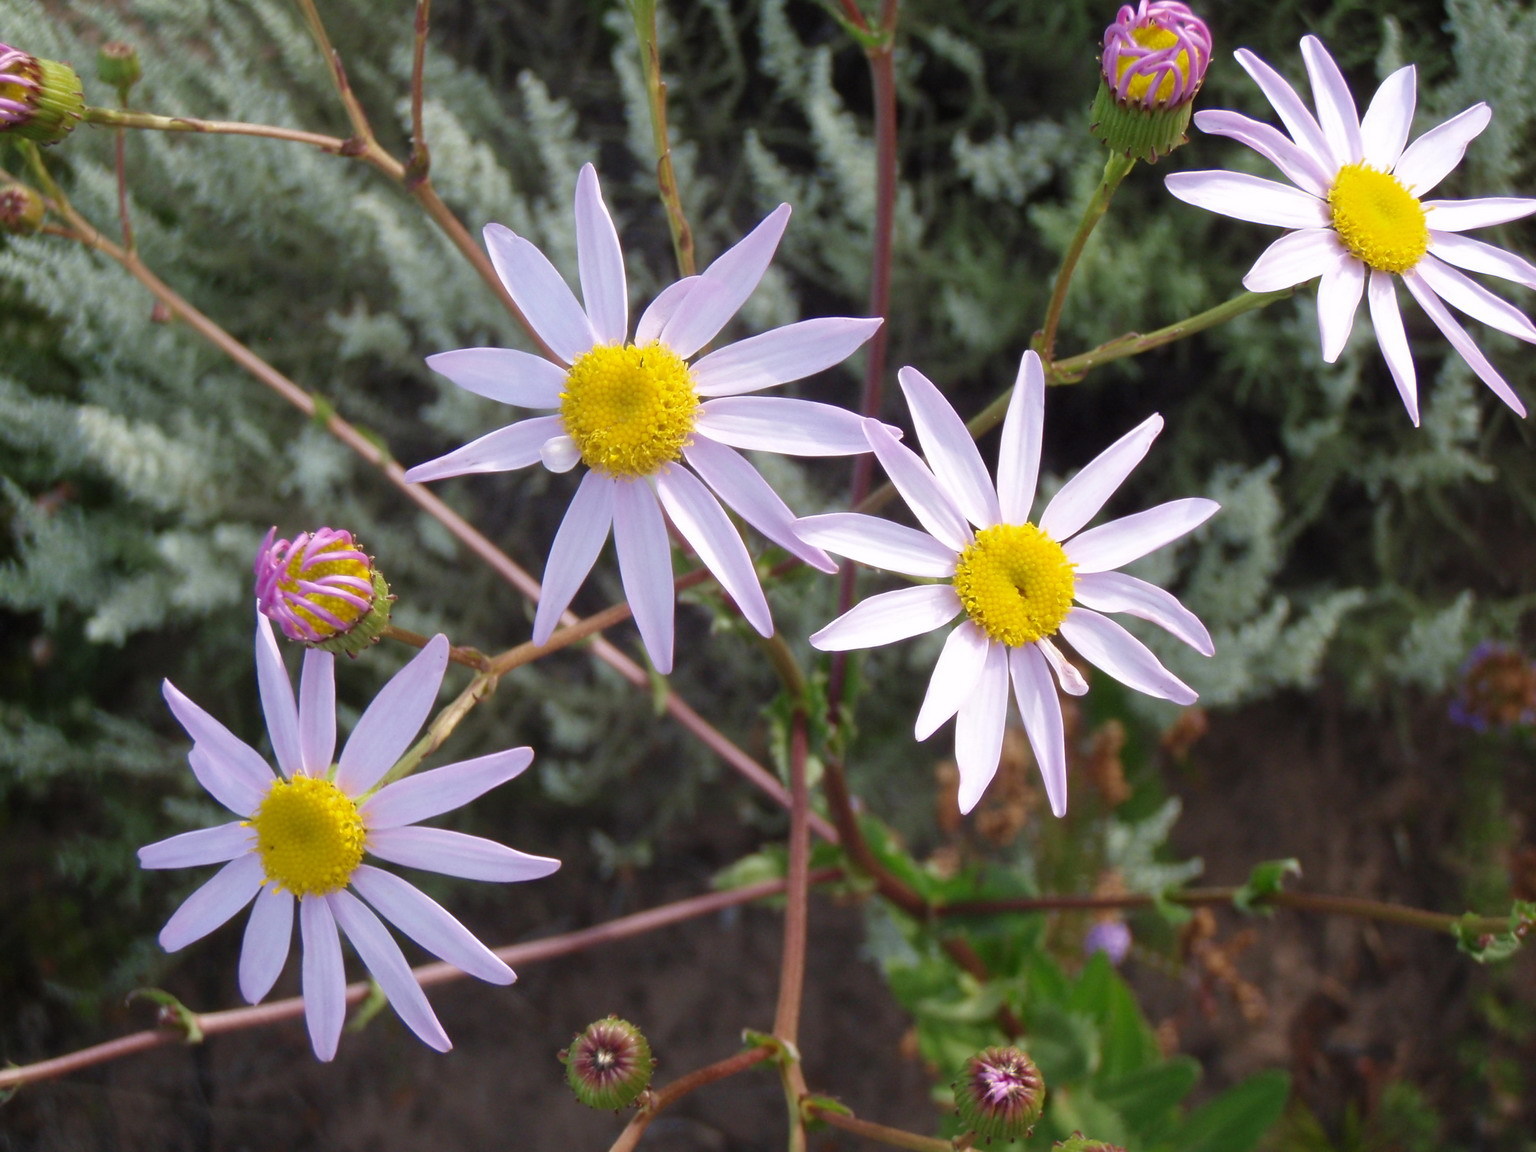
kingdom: Plantae
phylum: Tracheophyta
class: Magnoliopsida
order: Asterales
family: Asteraceae
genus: Senecio
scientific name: Senecio multibracteatus
